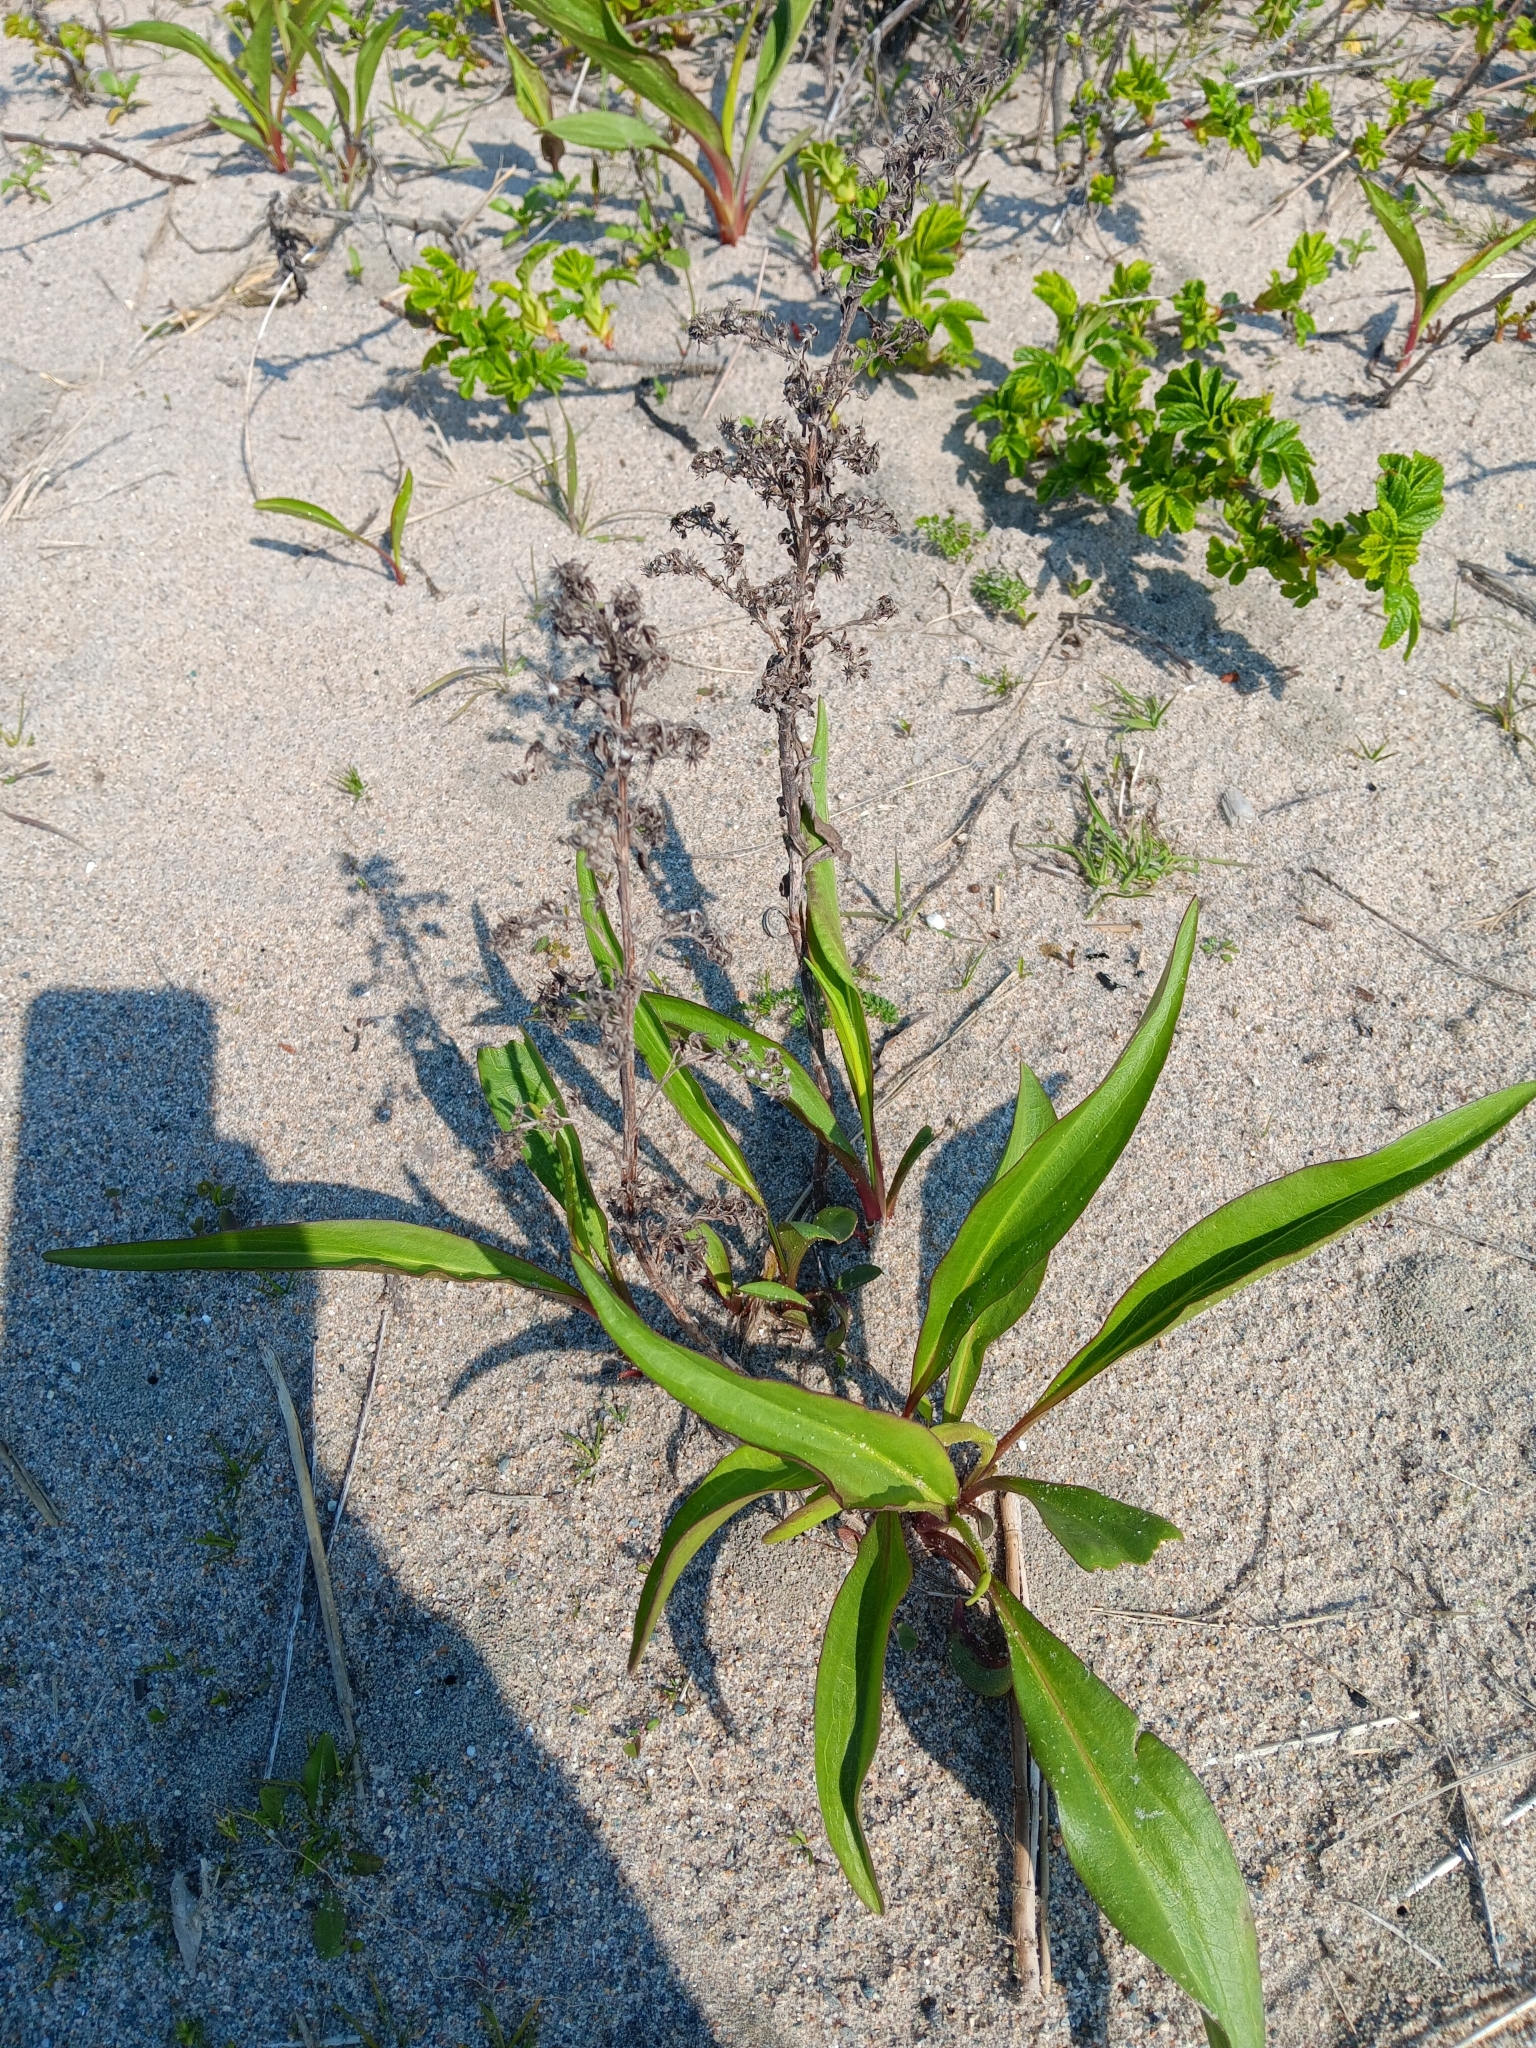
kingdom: Plantae
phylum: Tracheophyta
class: Magnoliopsida
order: Asterales
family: Asteraceae
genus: Solidago
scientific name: Solidago sempervirens
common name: Salt-marsh goldenrod
